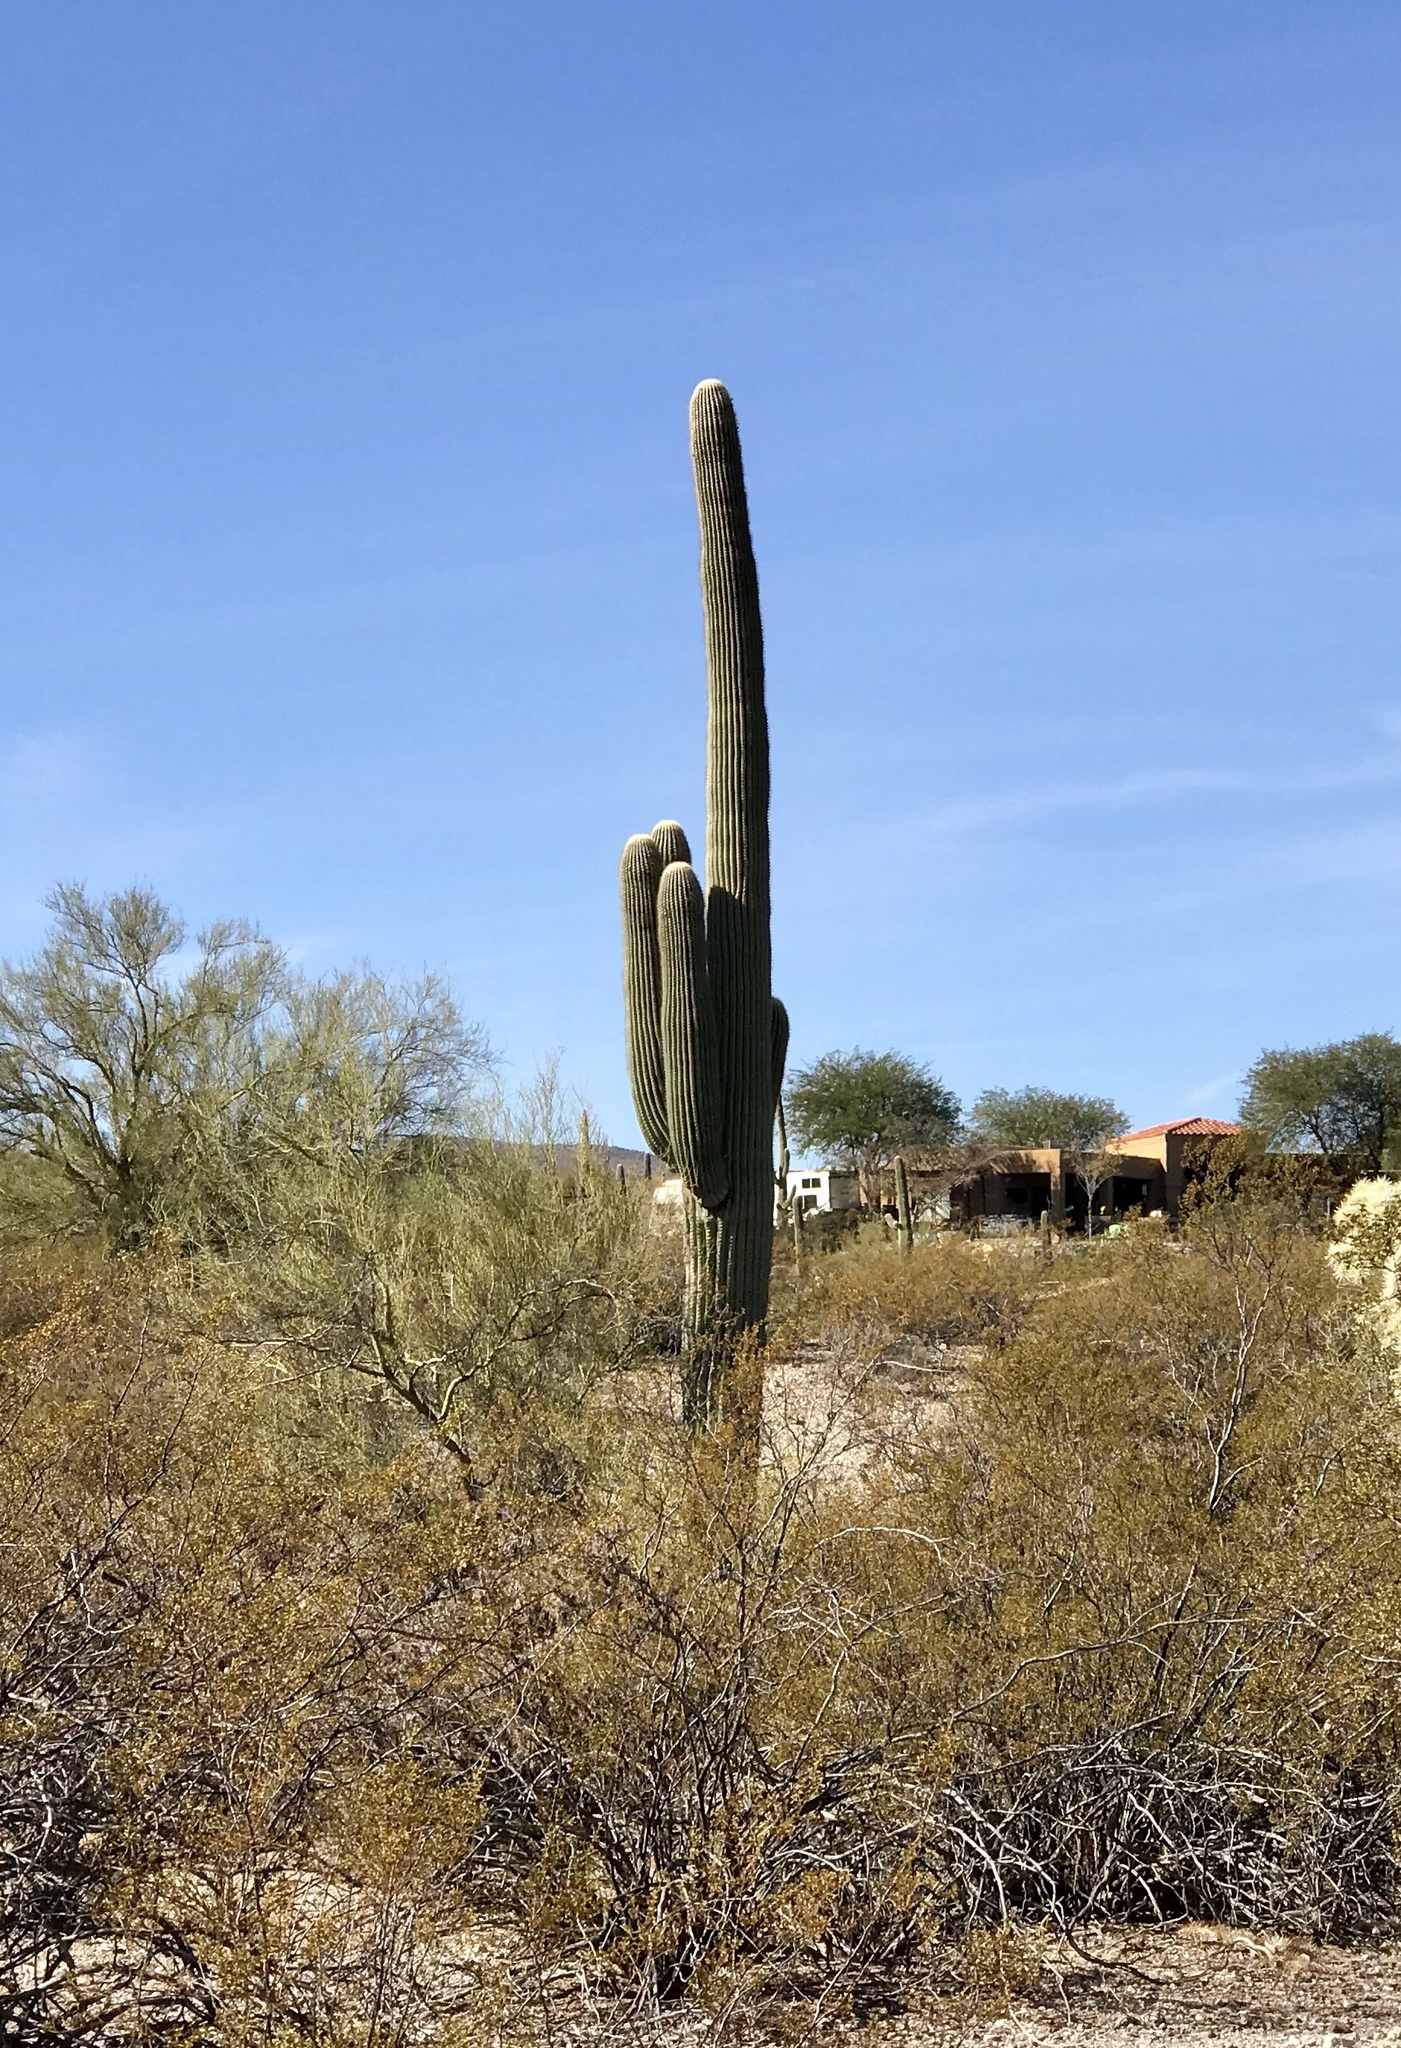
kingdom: Plantae
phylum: Tracheophyta
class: Magnoliopsida
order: Caryophyllales
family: Cactaceae
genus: Carnegiea
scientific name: Carnegiea gigantea
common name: Saguaro
